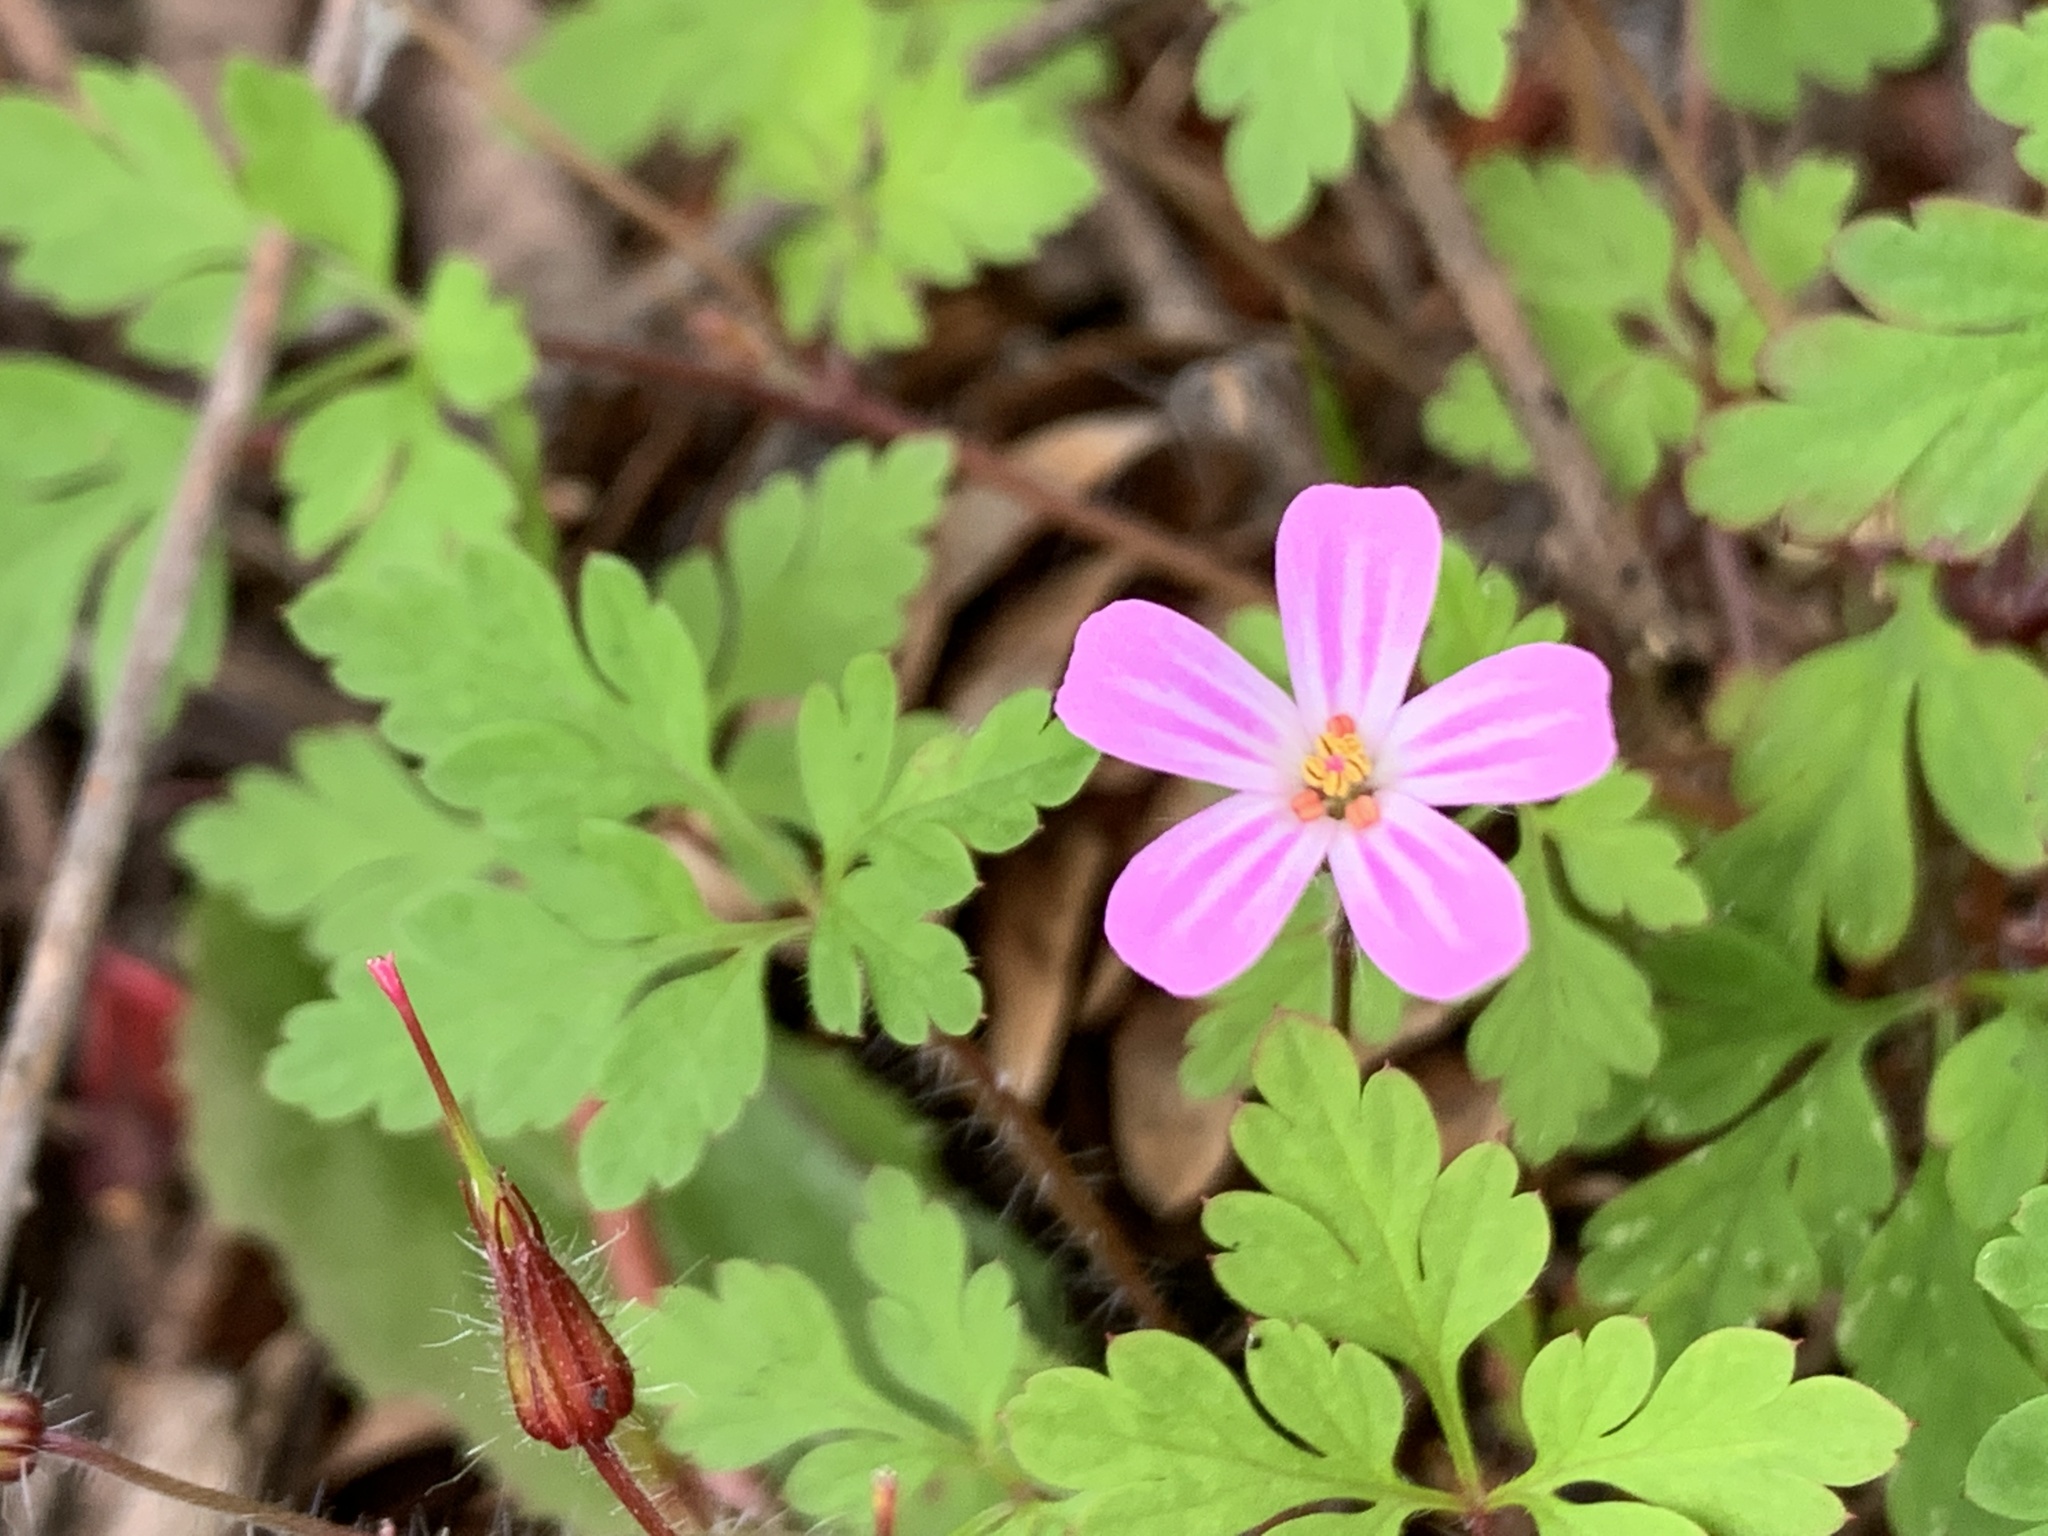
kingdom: Plantae
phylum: Tracheophyta
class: Magnoliopsida
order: Geraniales
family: Geraniaceae
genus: Geranium
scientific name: Geranium robertianum
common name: Herb-robert
